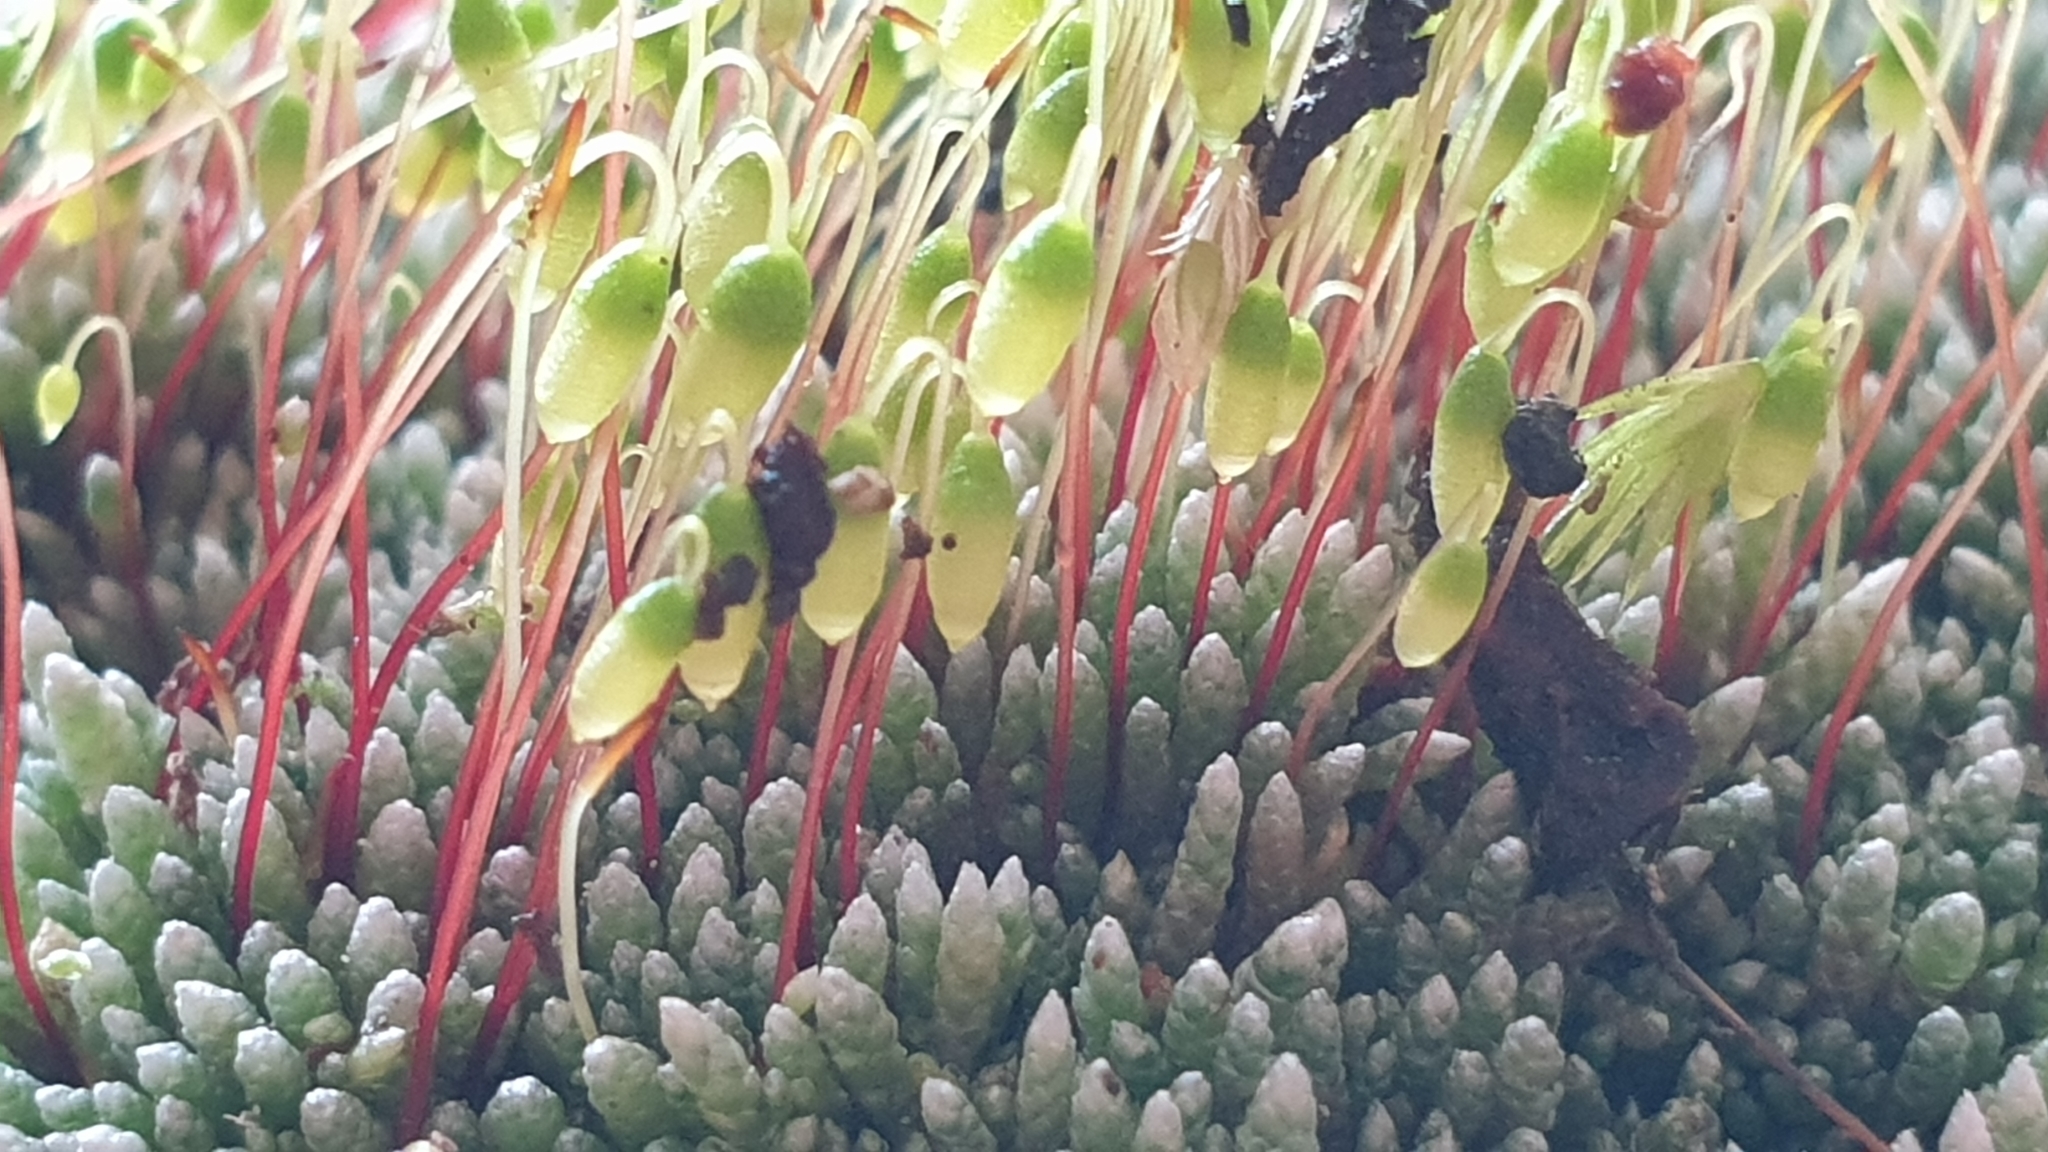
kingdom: Plantae
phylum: Bryophyta
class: Bryopsida
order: Bryales
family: Bryaceae
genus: Bryum
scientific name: Bryum argenteum
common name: Silver-moss
